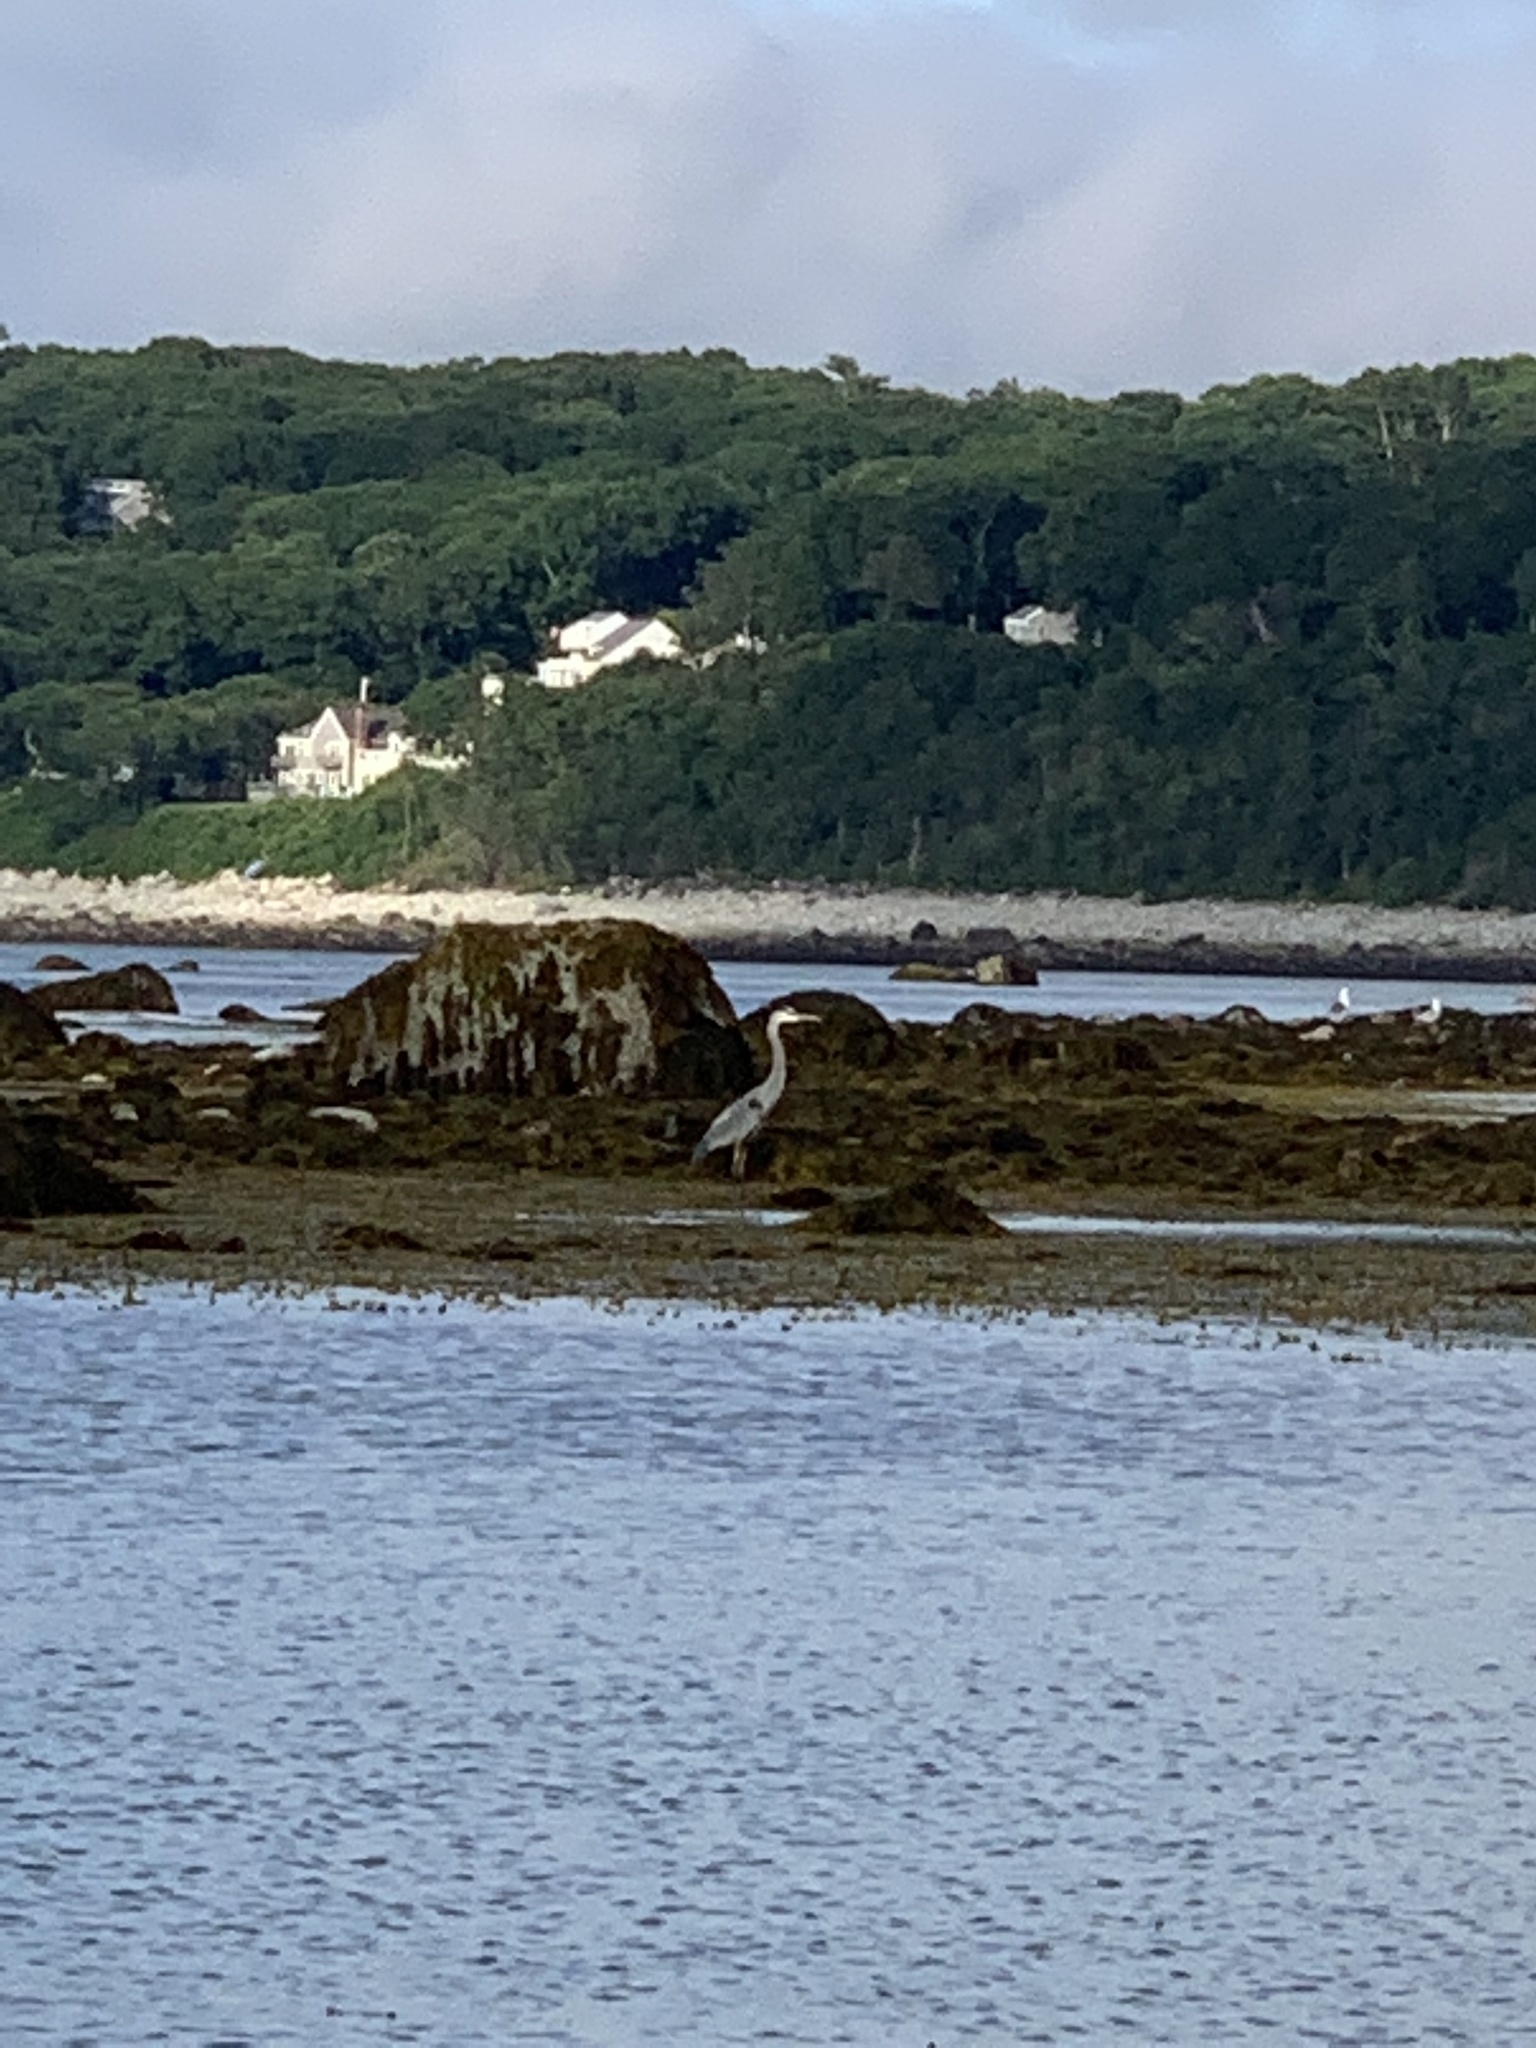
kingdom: Animalia
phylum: Chordata
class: Aves
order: Pelecaniformes
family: Ardeidae
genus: Ardea
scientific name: Ardea herodias
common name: Great blue heron
